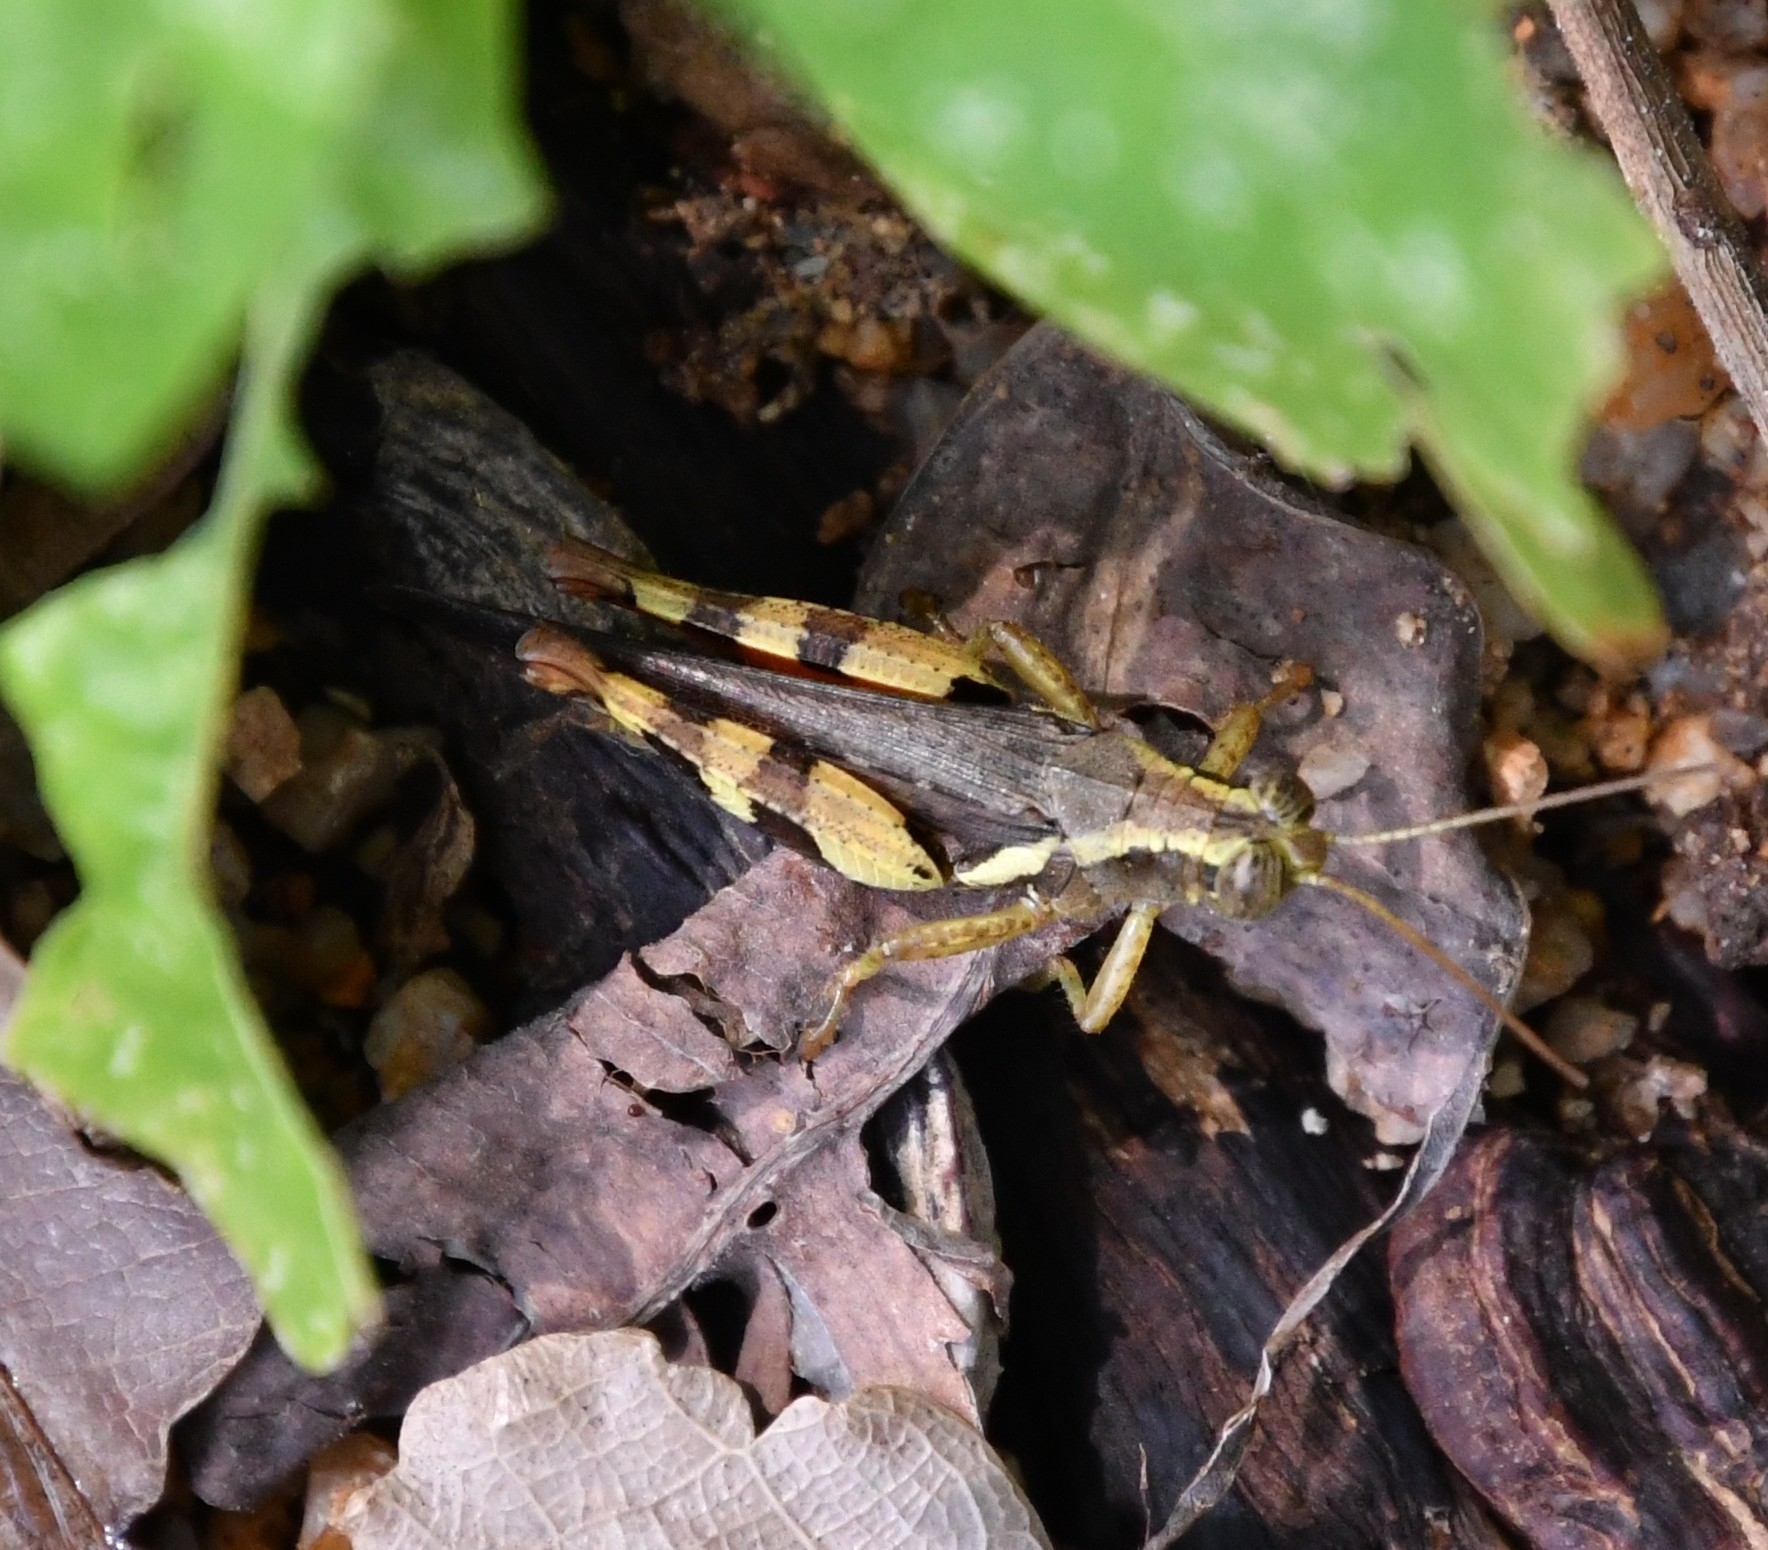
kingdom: Animalia
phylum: Arthropoda
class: Insecta
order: Orthoptera
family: Acrididae
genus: Xenocatantops
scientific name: Xenocatantops humile
